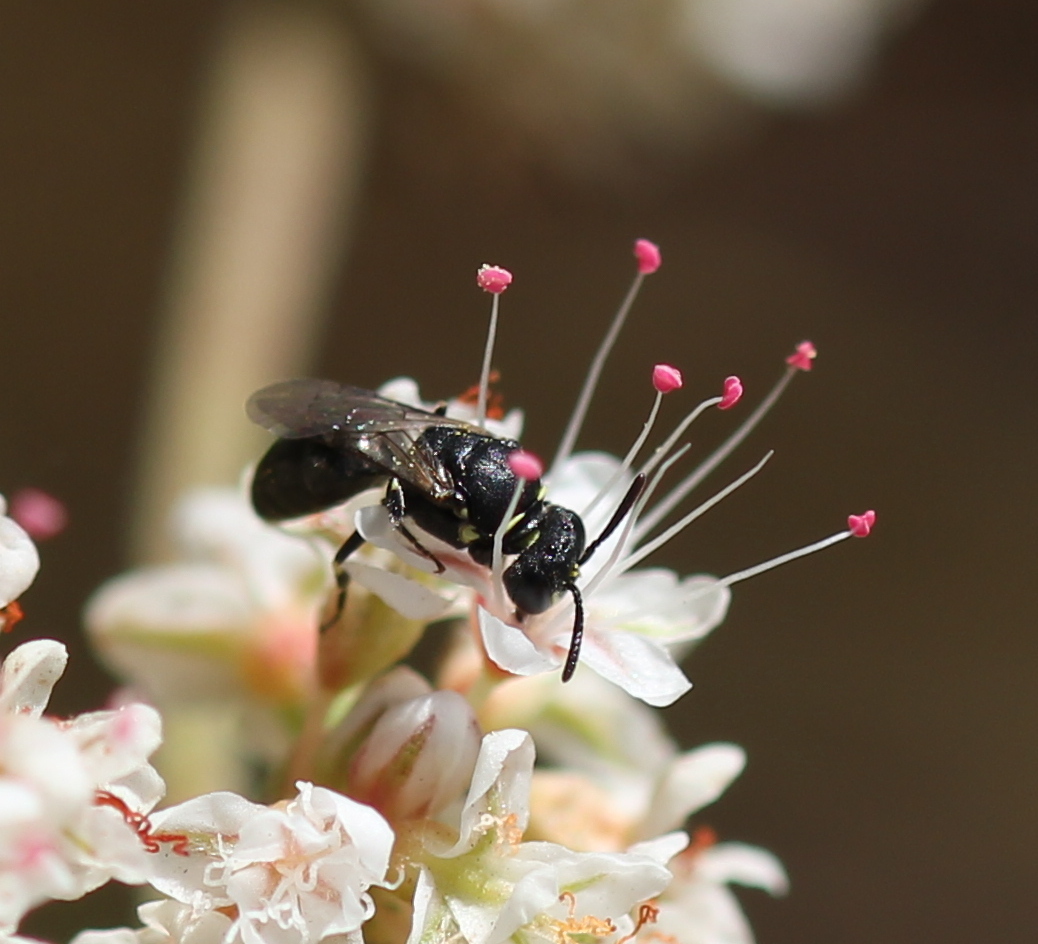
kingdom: Animalia
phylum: Arthropoda
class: Insecta
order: Hymenoptera
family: Colletidae
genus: Hylaeus
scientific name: Hylaeus
